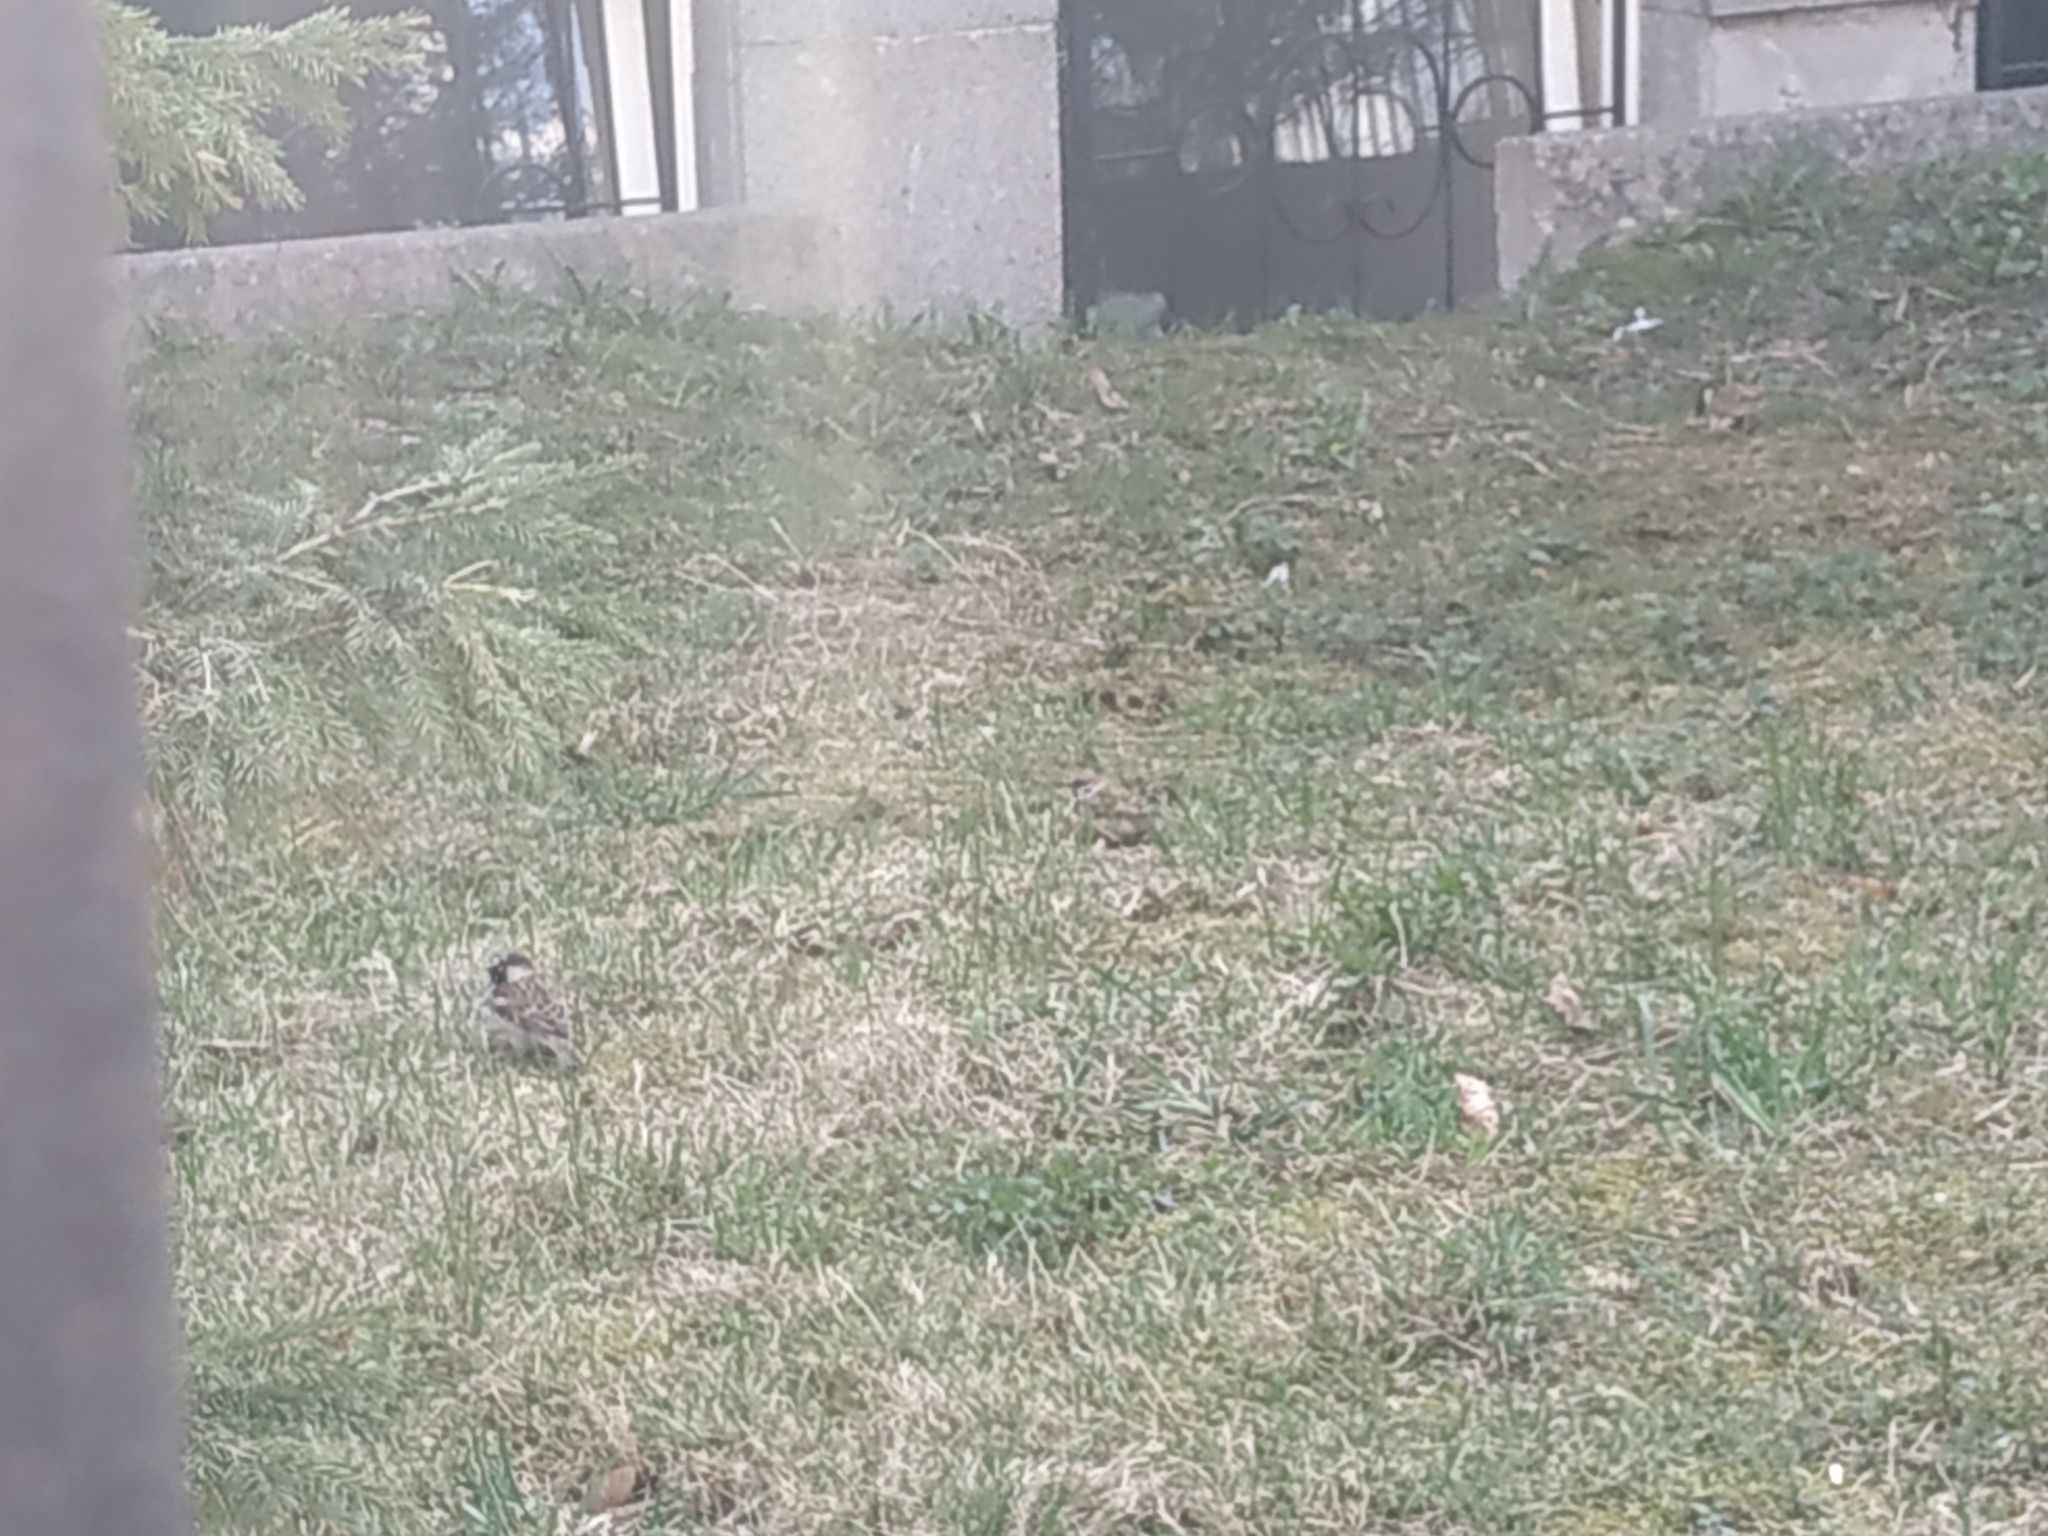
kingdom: Animalia
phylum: Chordata
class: Aves
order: Passeriformes
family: Passeridae
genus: Passer
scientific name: Passer domesticus
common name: House sparrow
